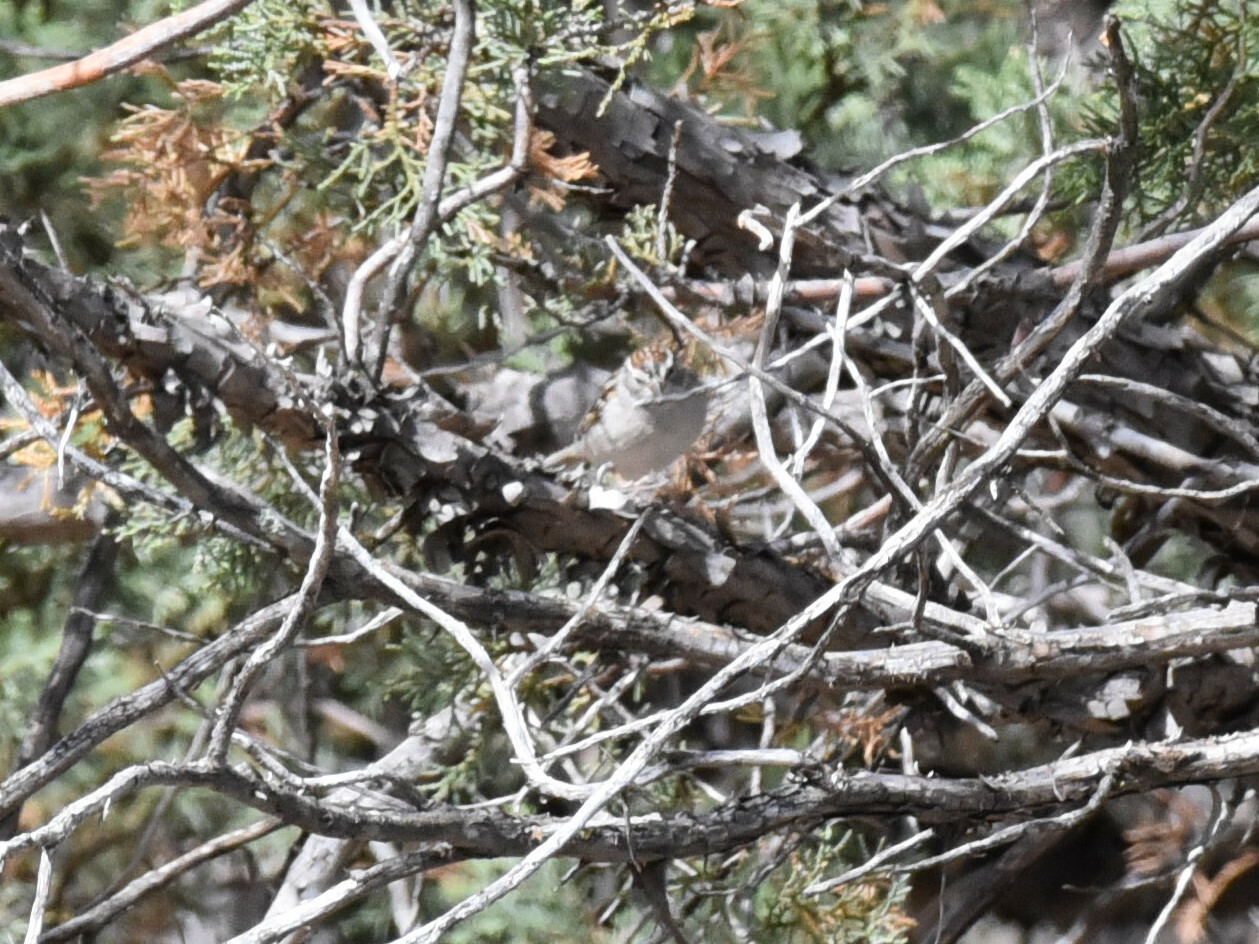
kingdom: Animalia
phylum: Chordata
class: Aves
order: Passeriformes
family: Passerellidae
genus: Spizella
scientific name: Spizella passerina
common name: Chipping sparrow
